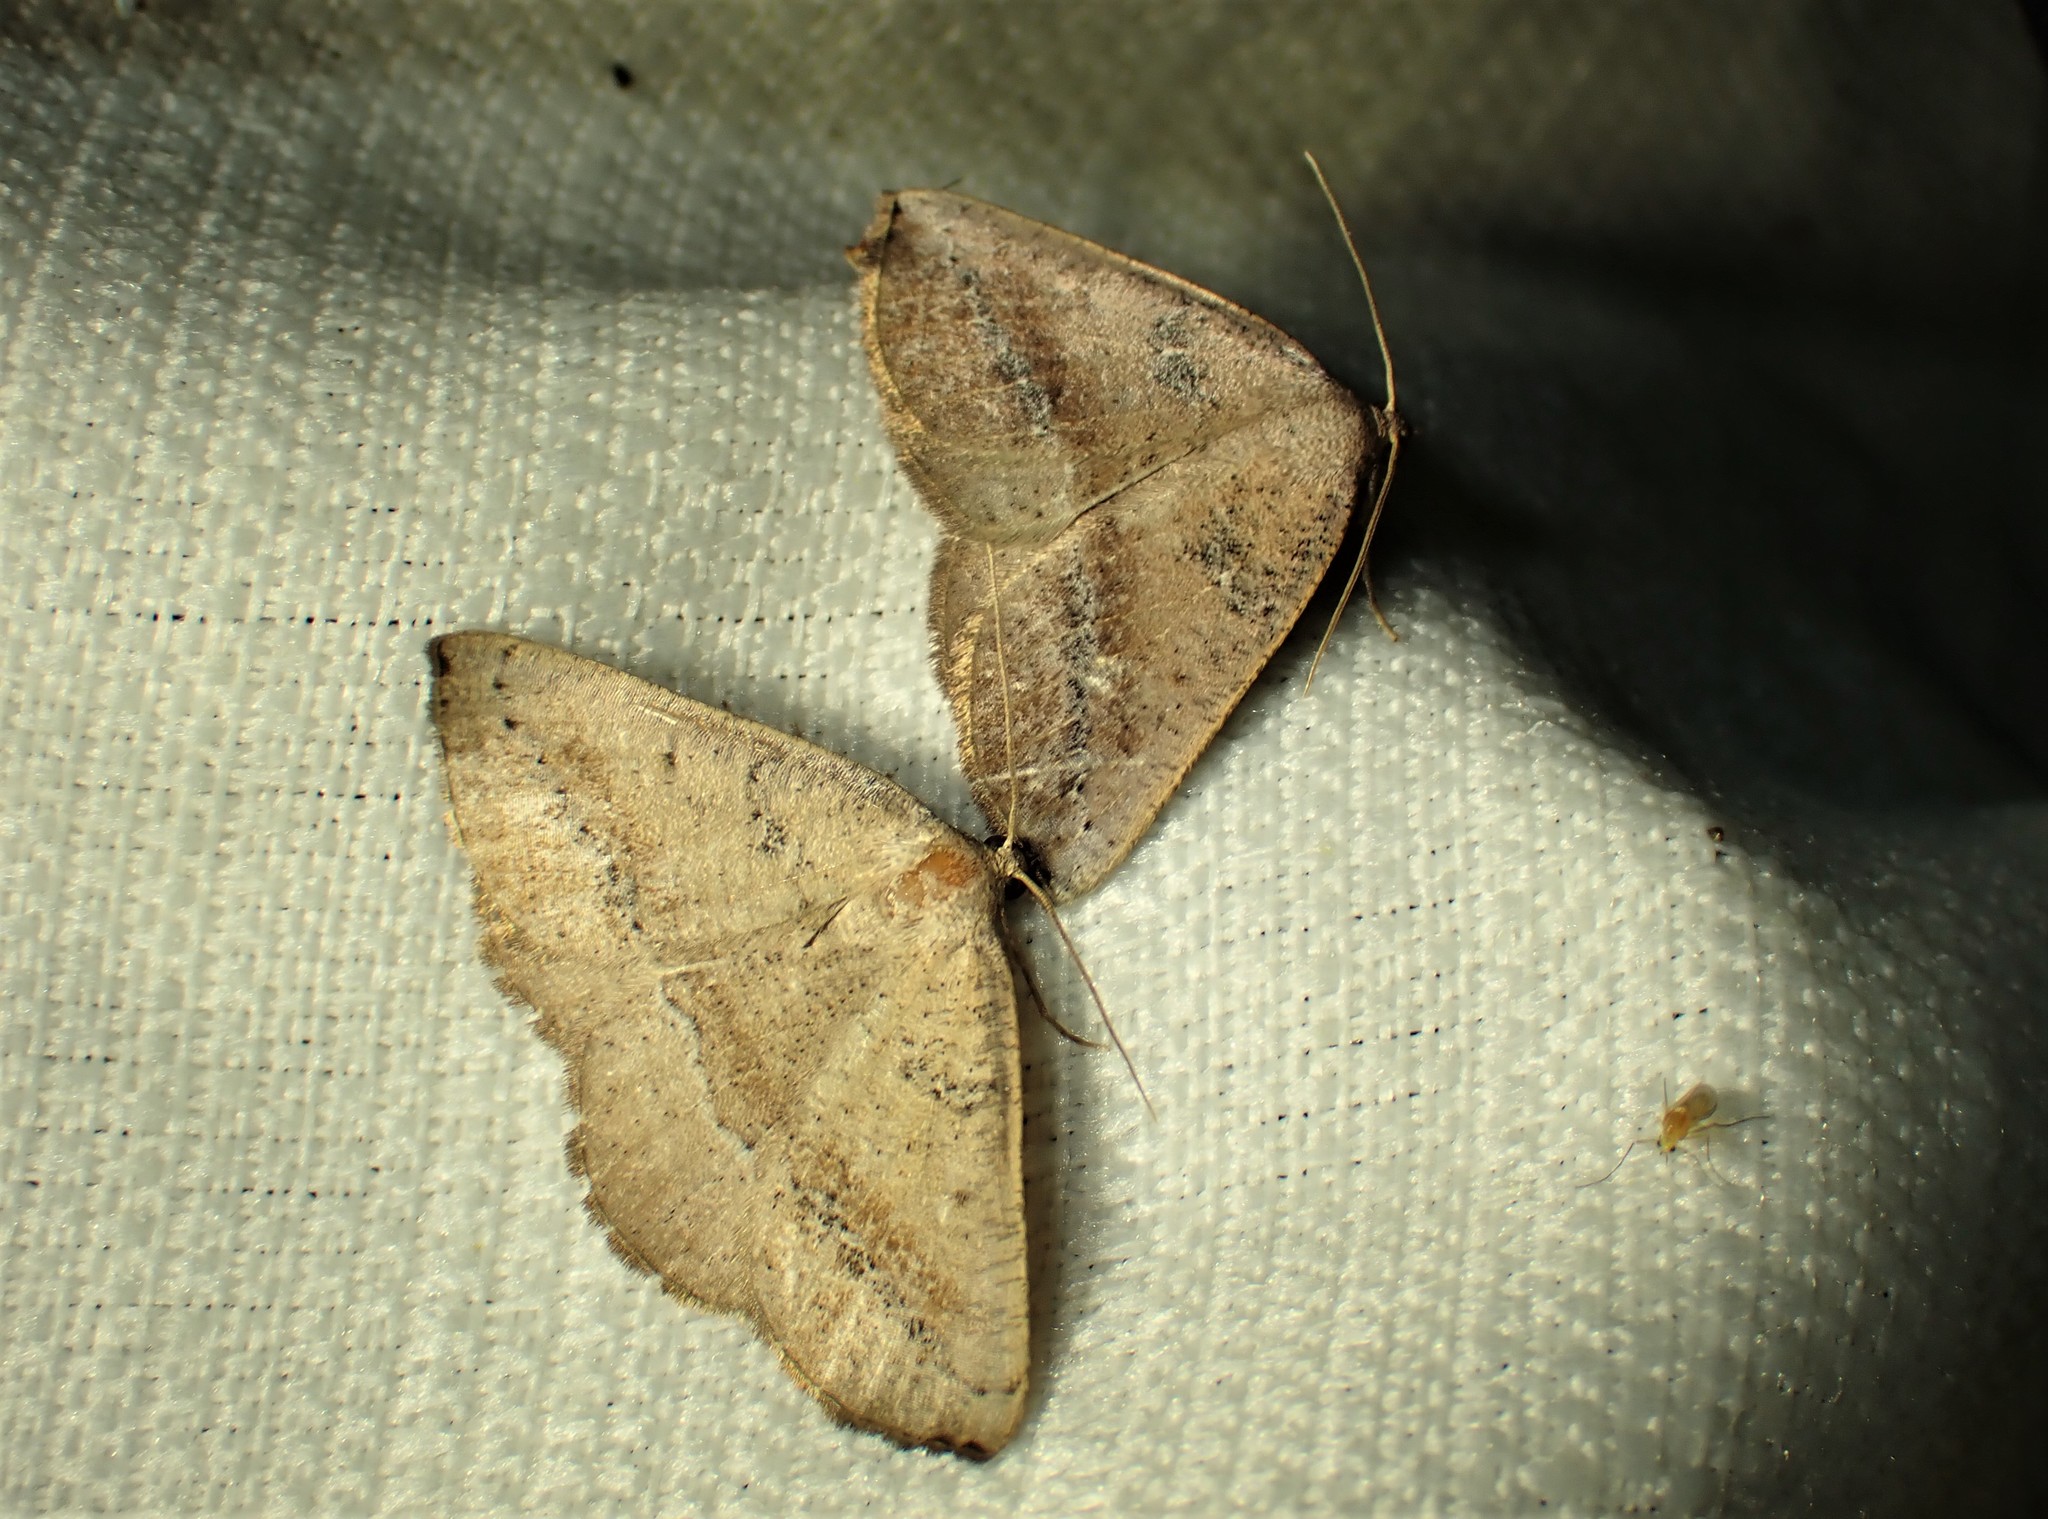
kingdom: Animalia
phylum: Arthropoda
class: Insecta
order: Lepidoptera
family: Geometridae
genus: Tacparia
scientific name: Tacparia atropunctata
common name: Northern pale alder
